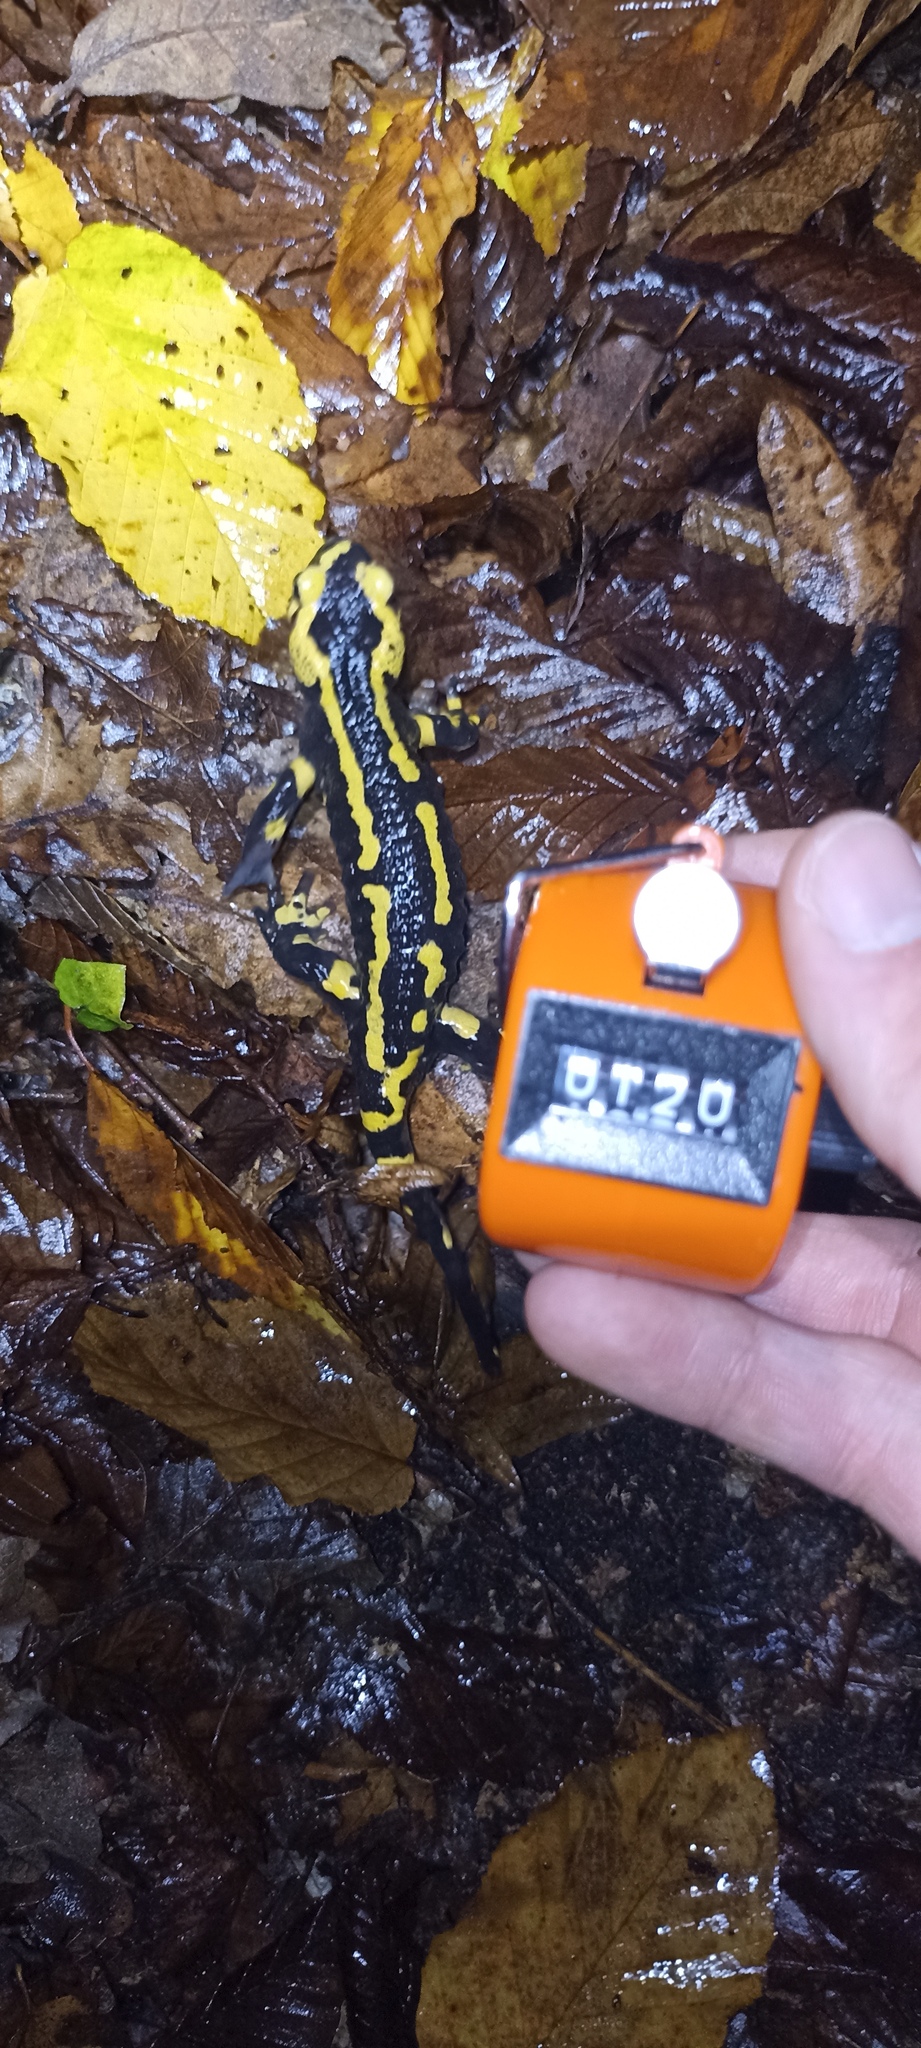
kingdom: Animalia
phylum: Chordata
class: Amphibia
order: Caudata
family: Salamandridae
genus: Salamandra
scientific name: Salamandra salamandra
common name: Fire salamander
